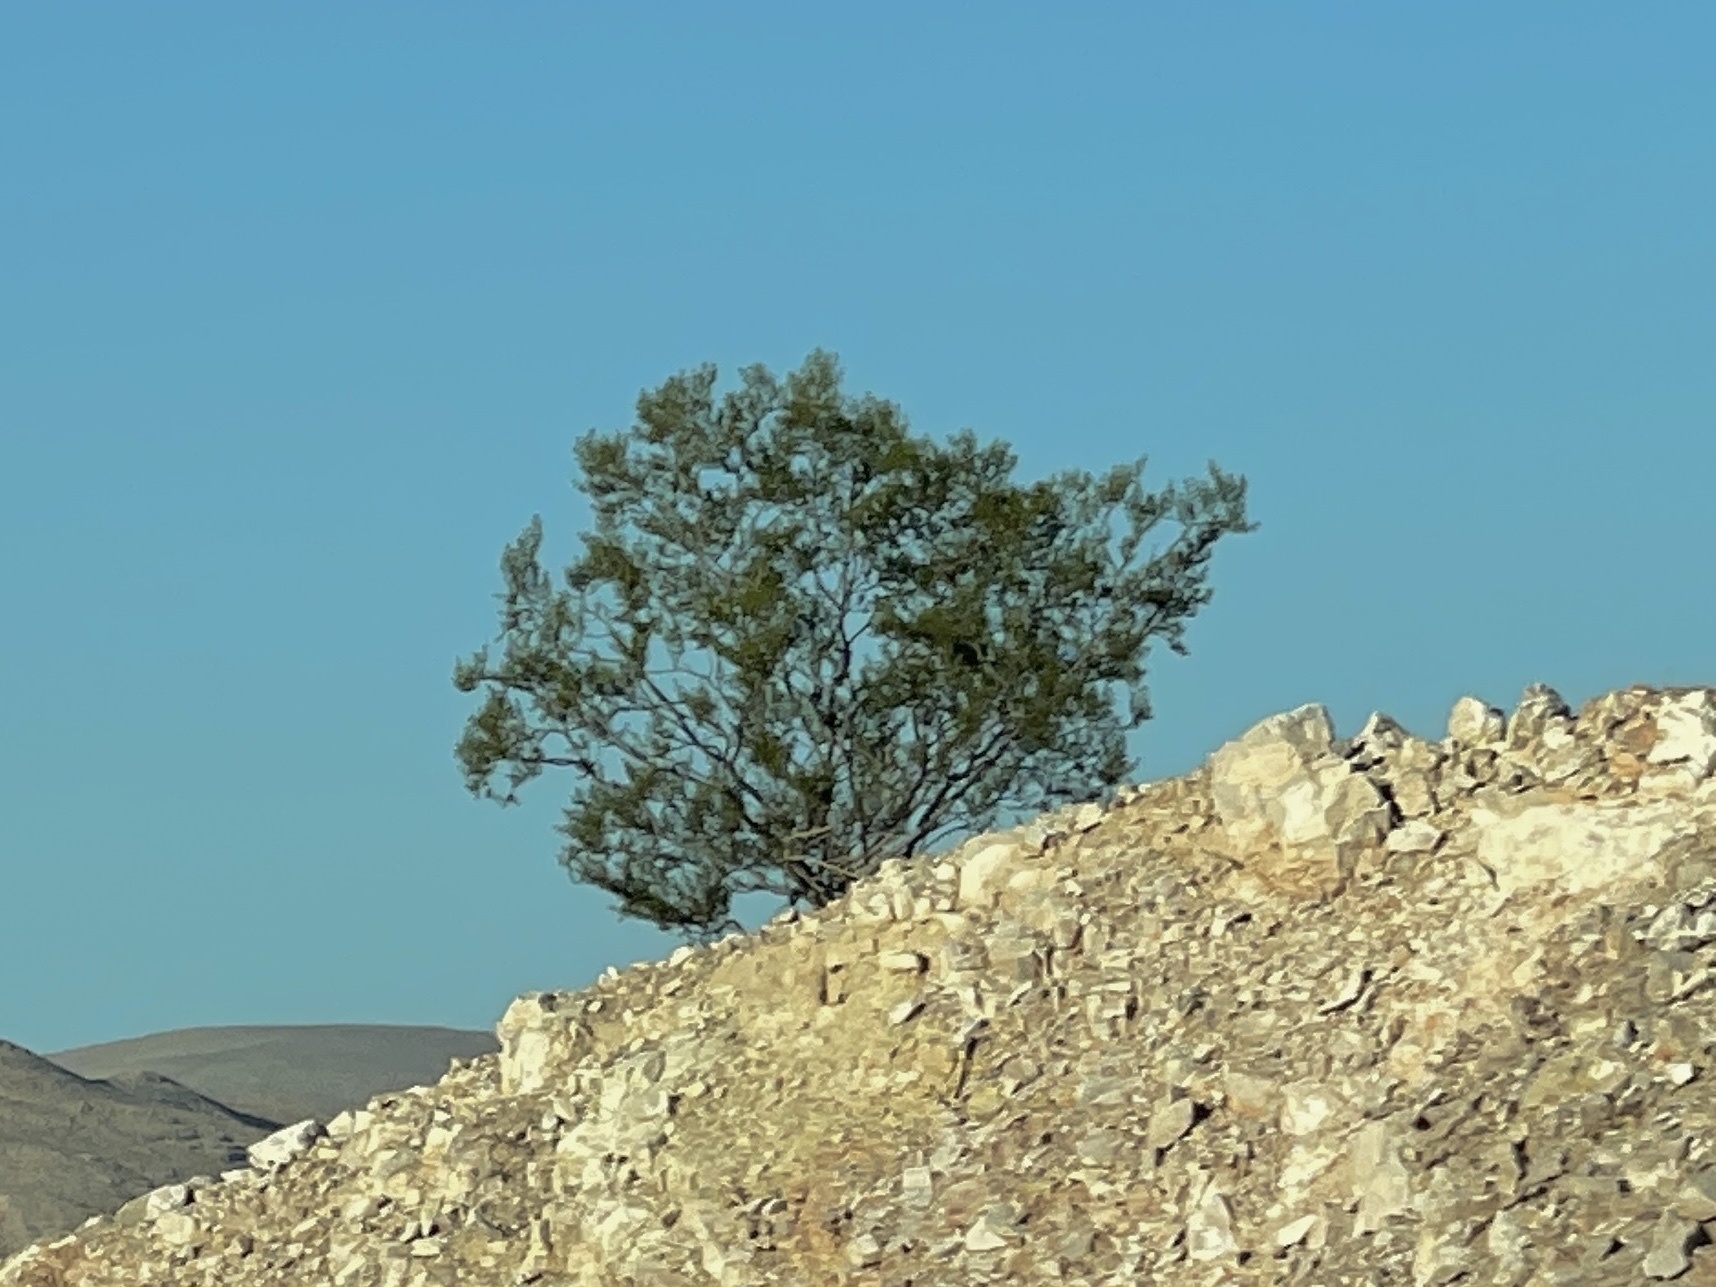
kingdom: Plantae
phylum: Tracheophyta
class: Magnoliopsida
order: Zygophyllales
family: Zygophyllaceae
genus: Larrea
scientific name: Larrea tridentata
